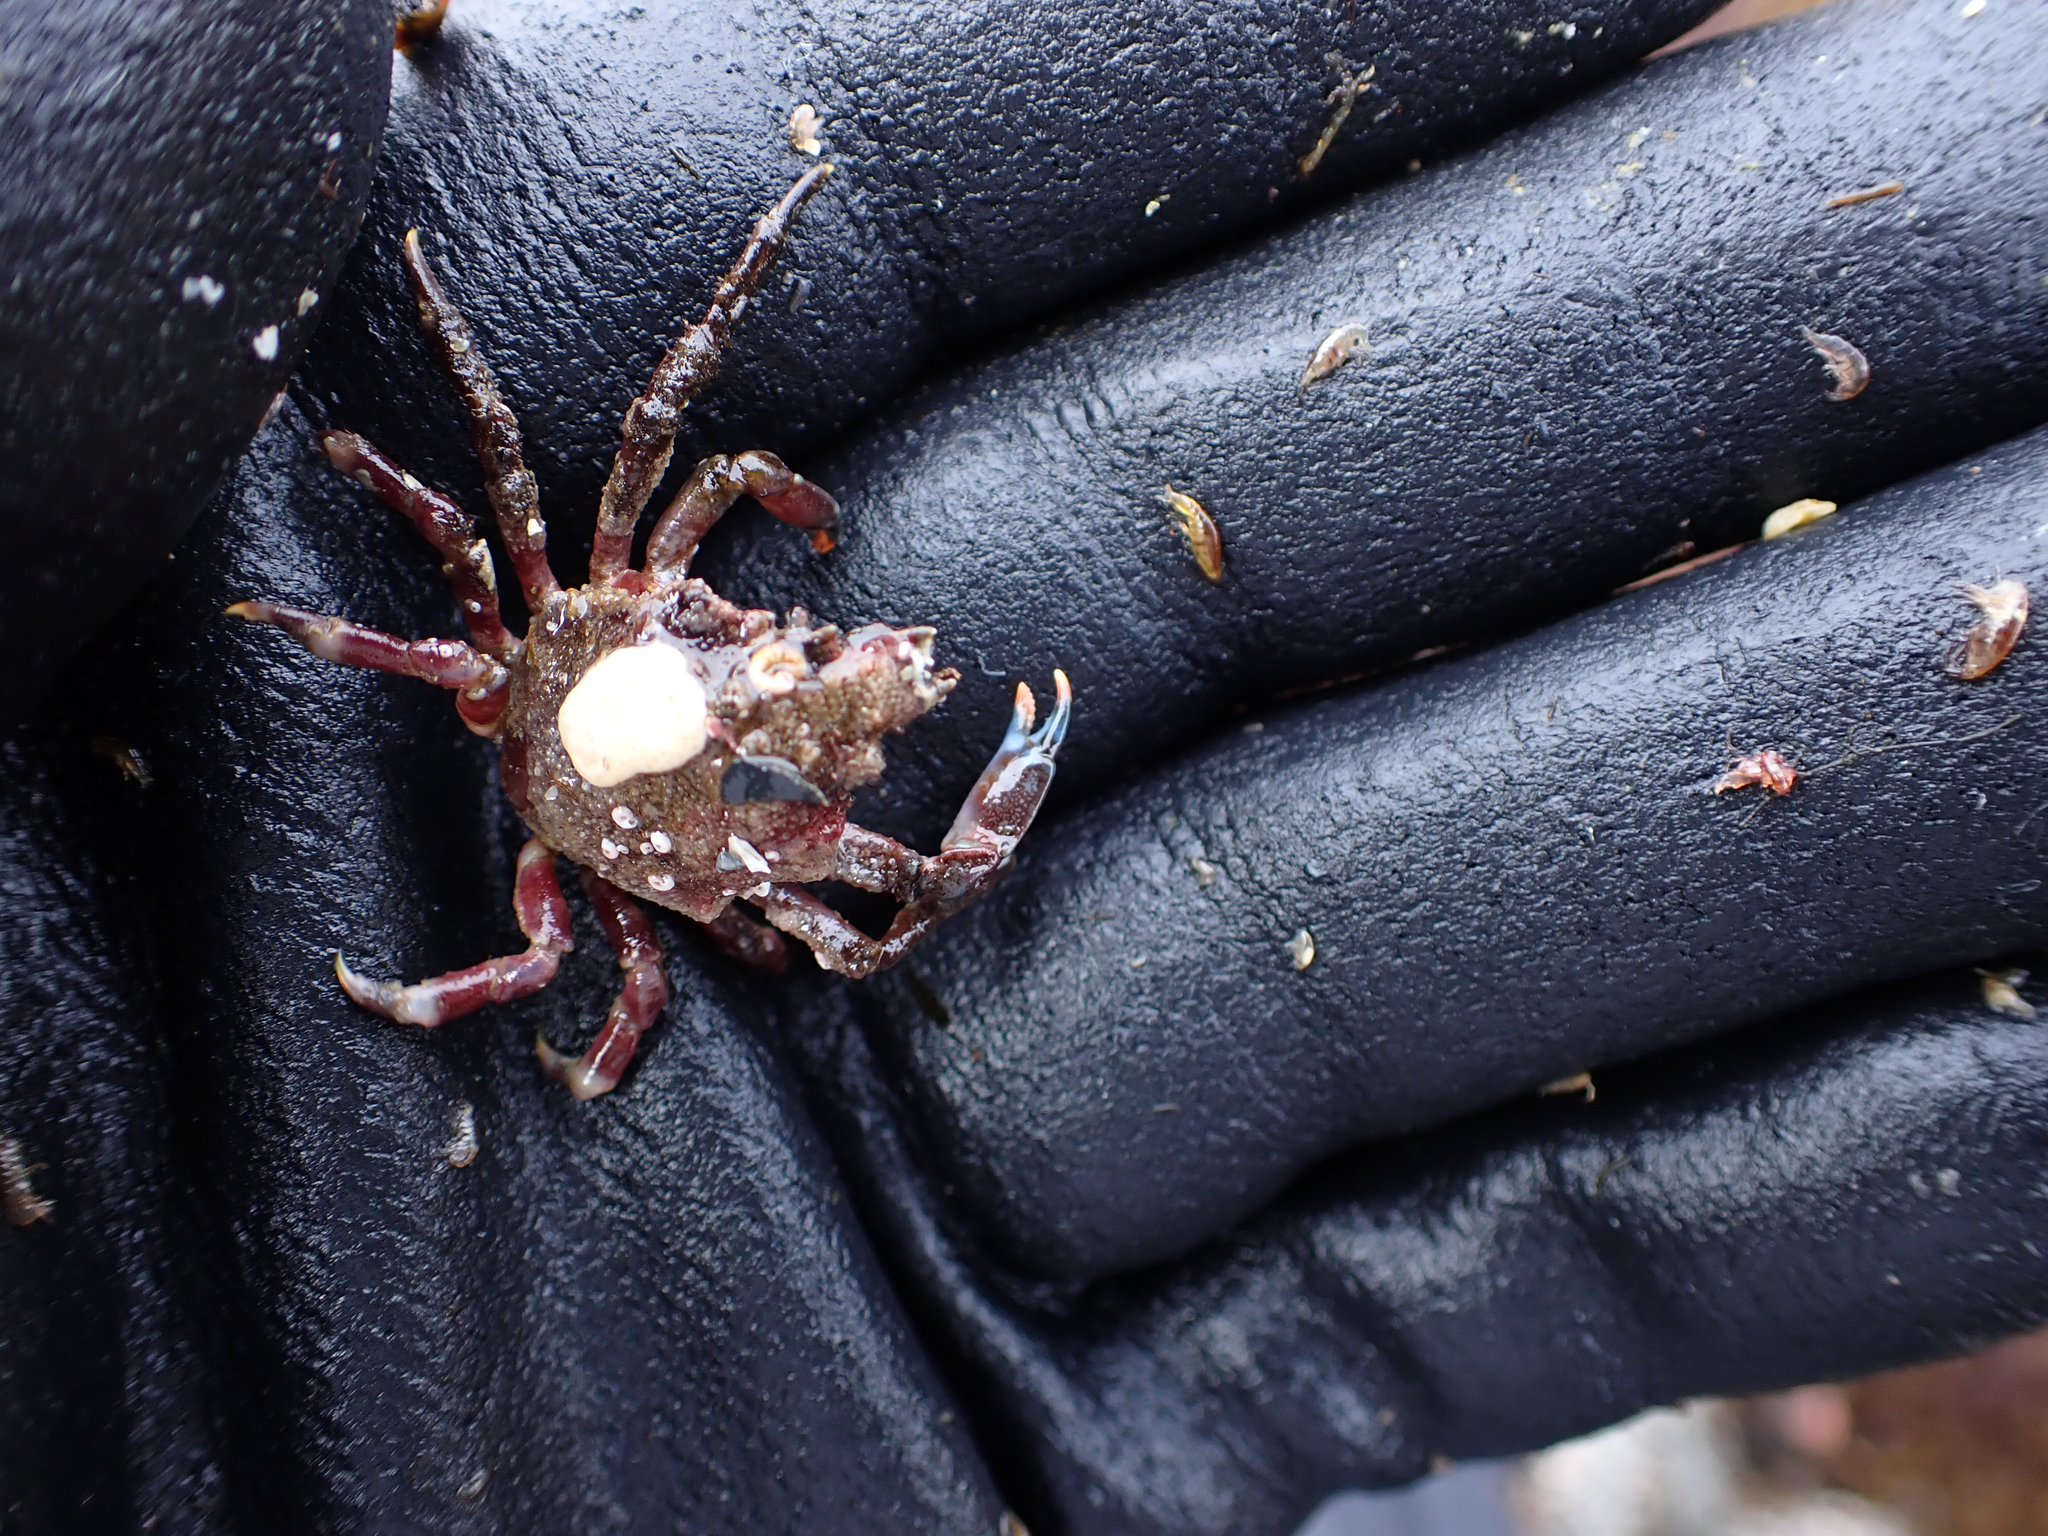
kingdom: Animalia
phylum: Arthropoda
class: Malacostraca
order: Decapoda
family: Epialtidae
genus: Pugettia
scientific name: Pugettia gracilis
